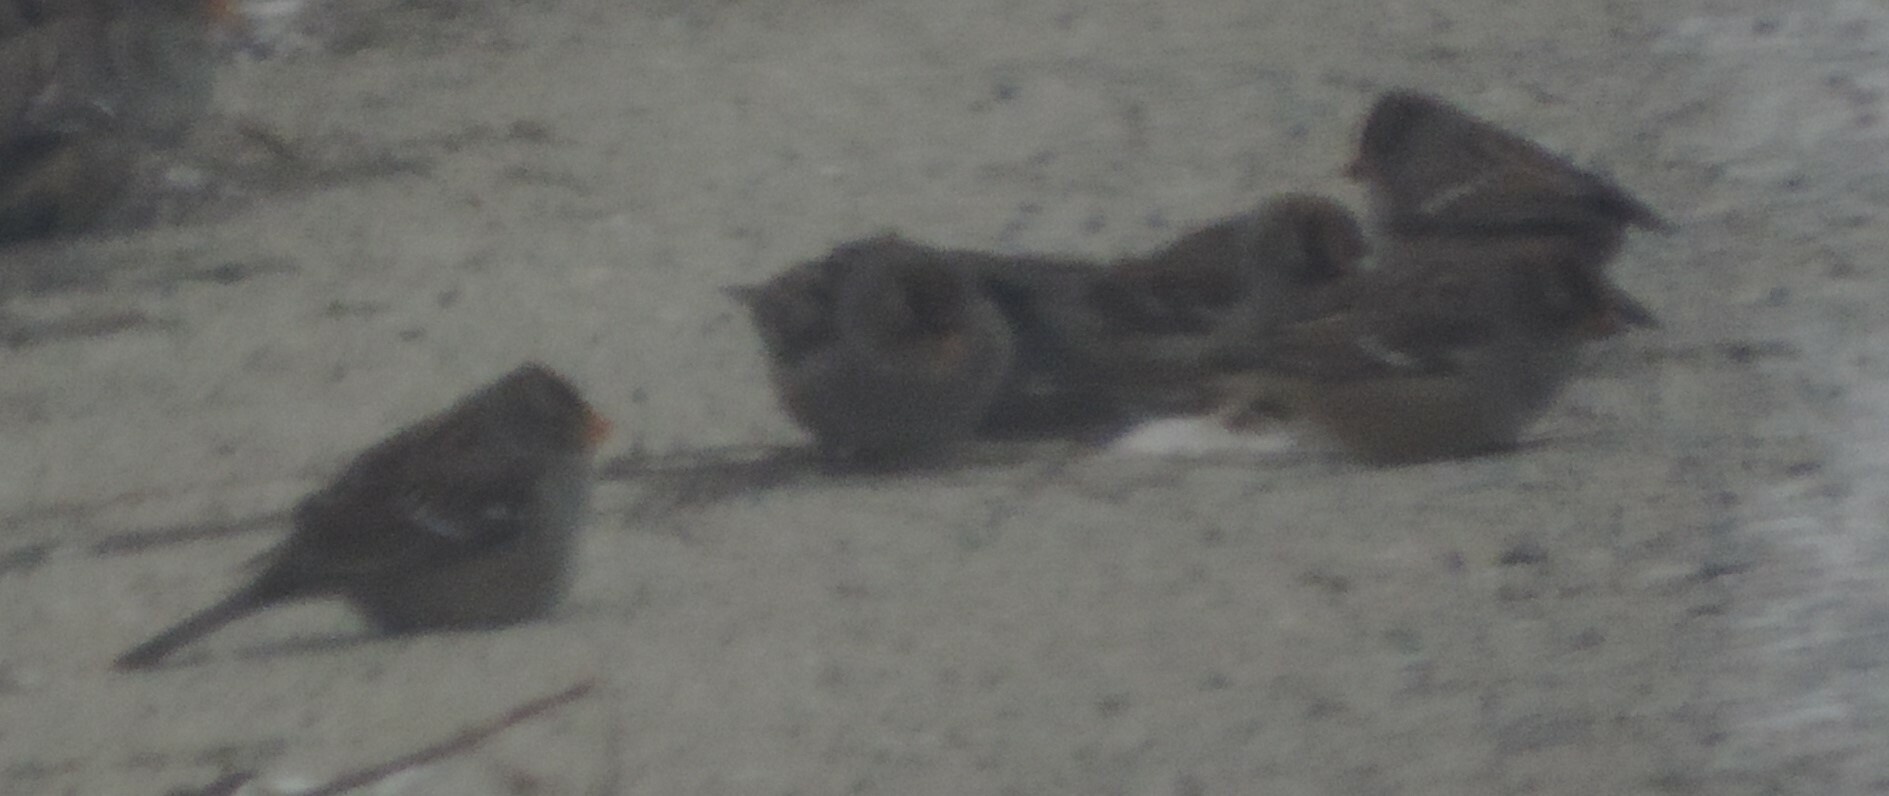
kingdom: Animalia
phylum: Chordata
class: Aves
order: Passeriformes
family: Passerellidae
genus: Zonotrichia
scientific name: Zonotrichia leucophrys
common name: White-crowned sparrow
